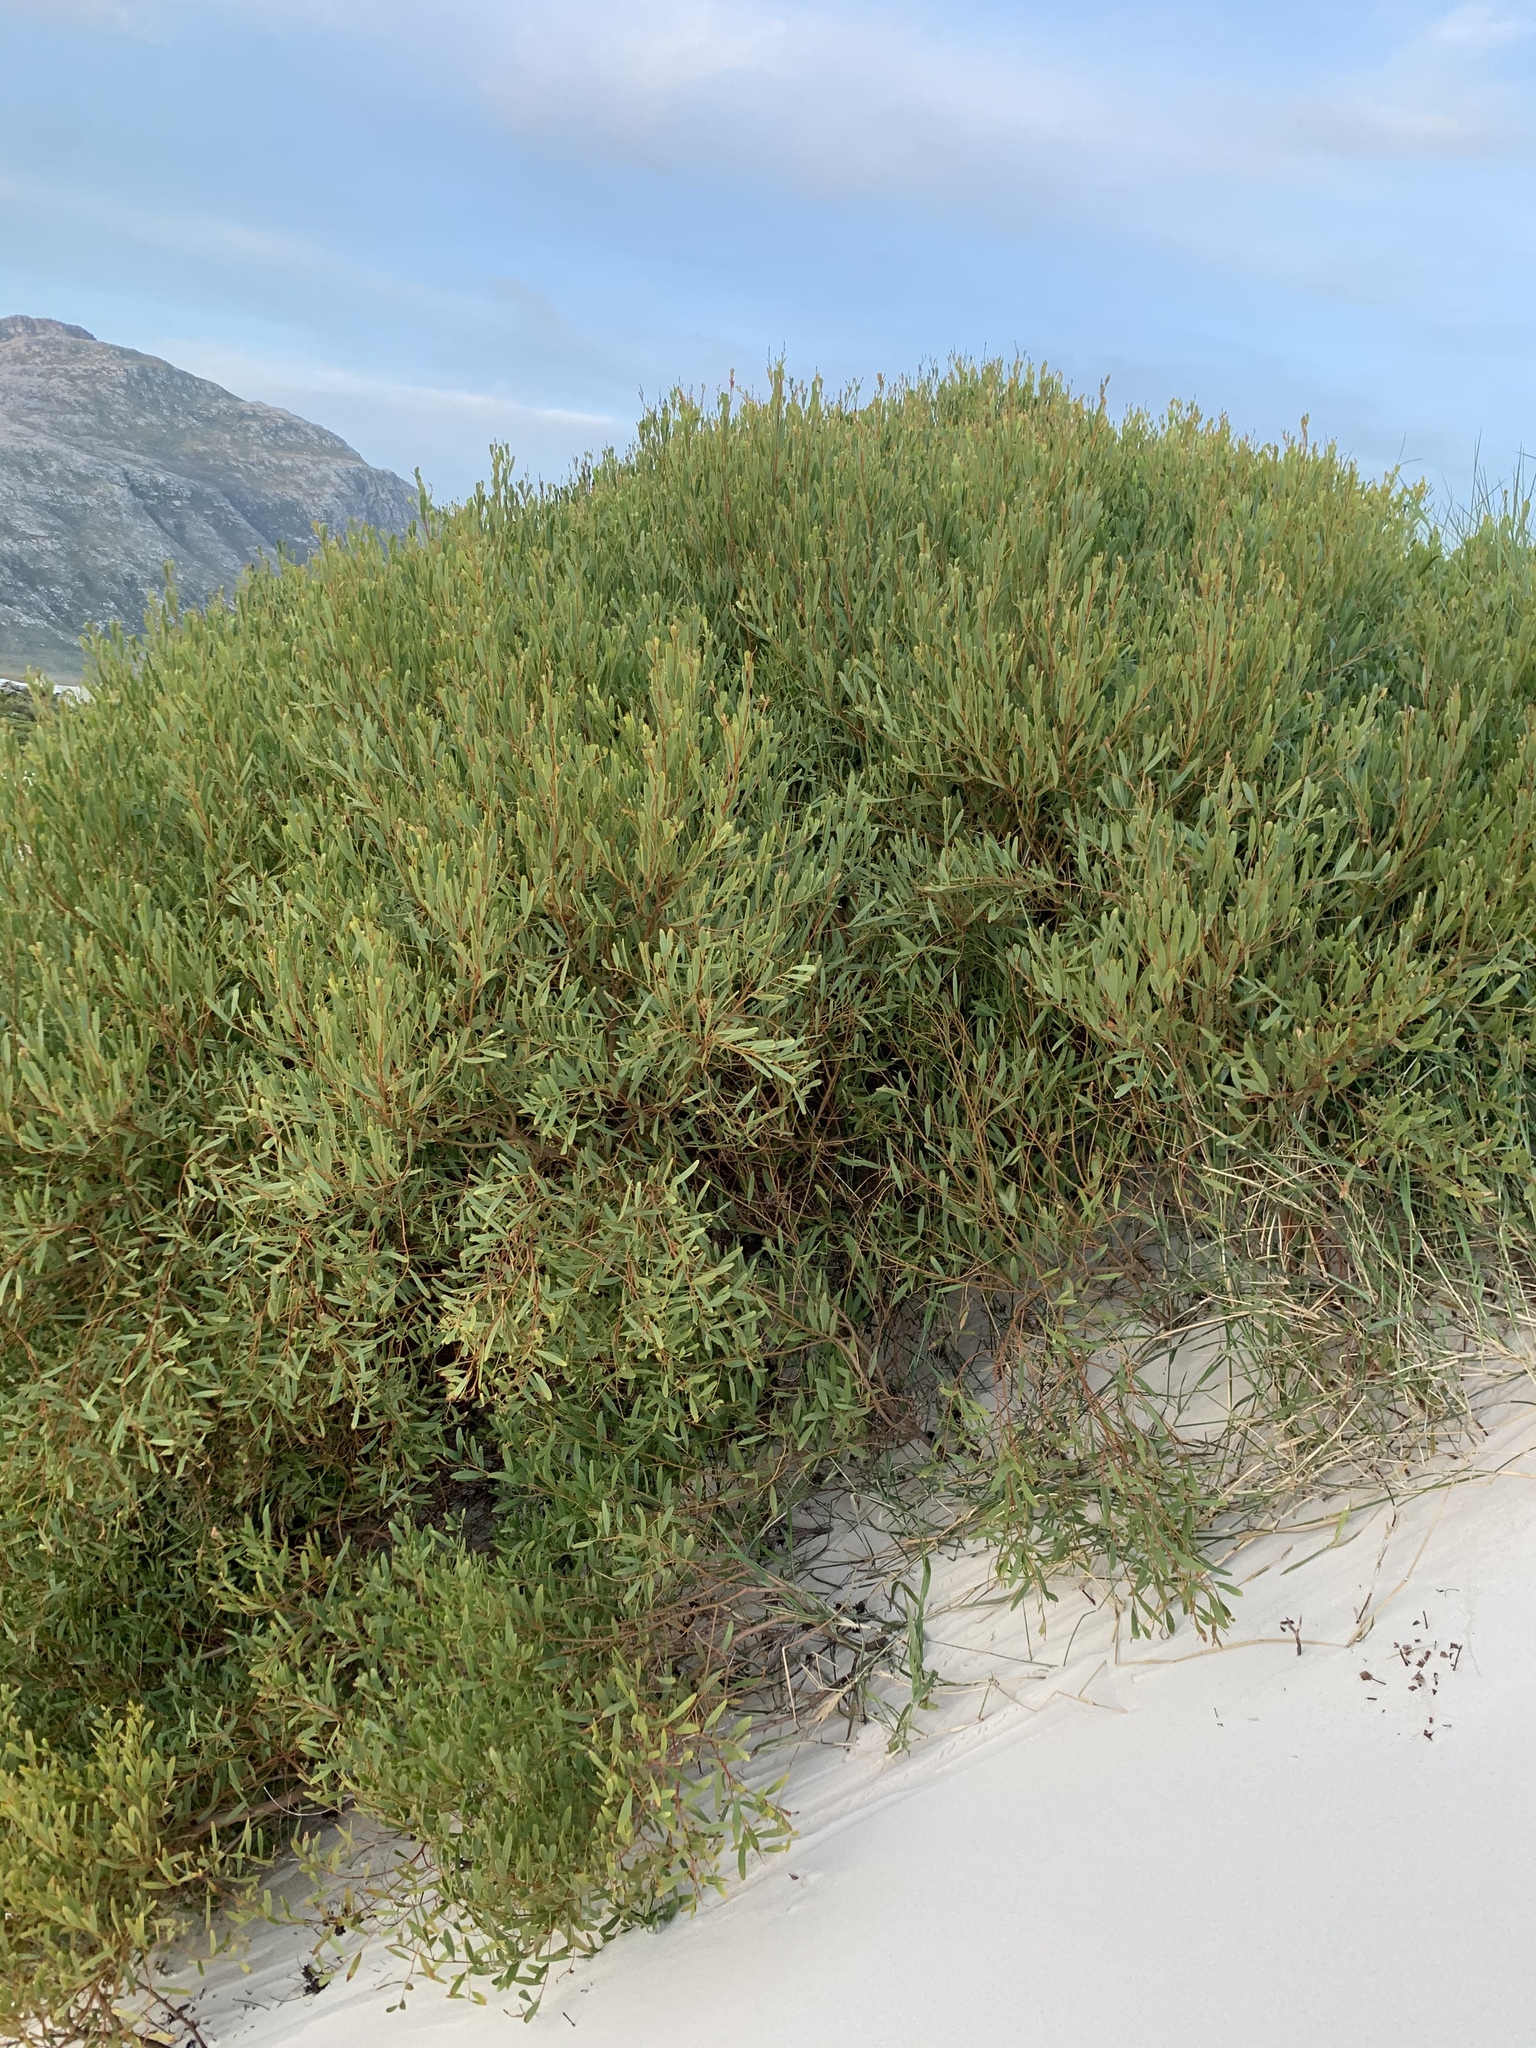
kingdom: Plantae
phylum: Tracheophyta
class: Magnoliopsida
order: Fabales
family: Fabaceae
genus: Acacia
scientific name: Acacia cyclops
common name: Coastal wattle
